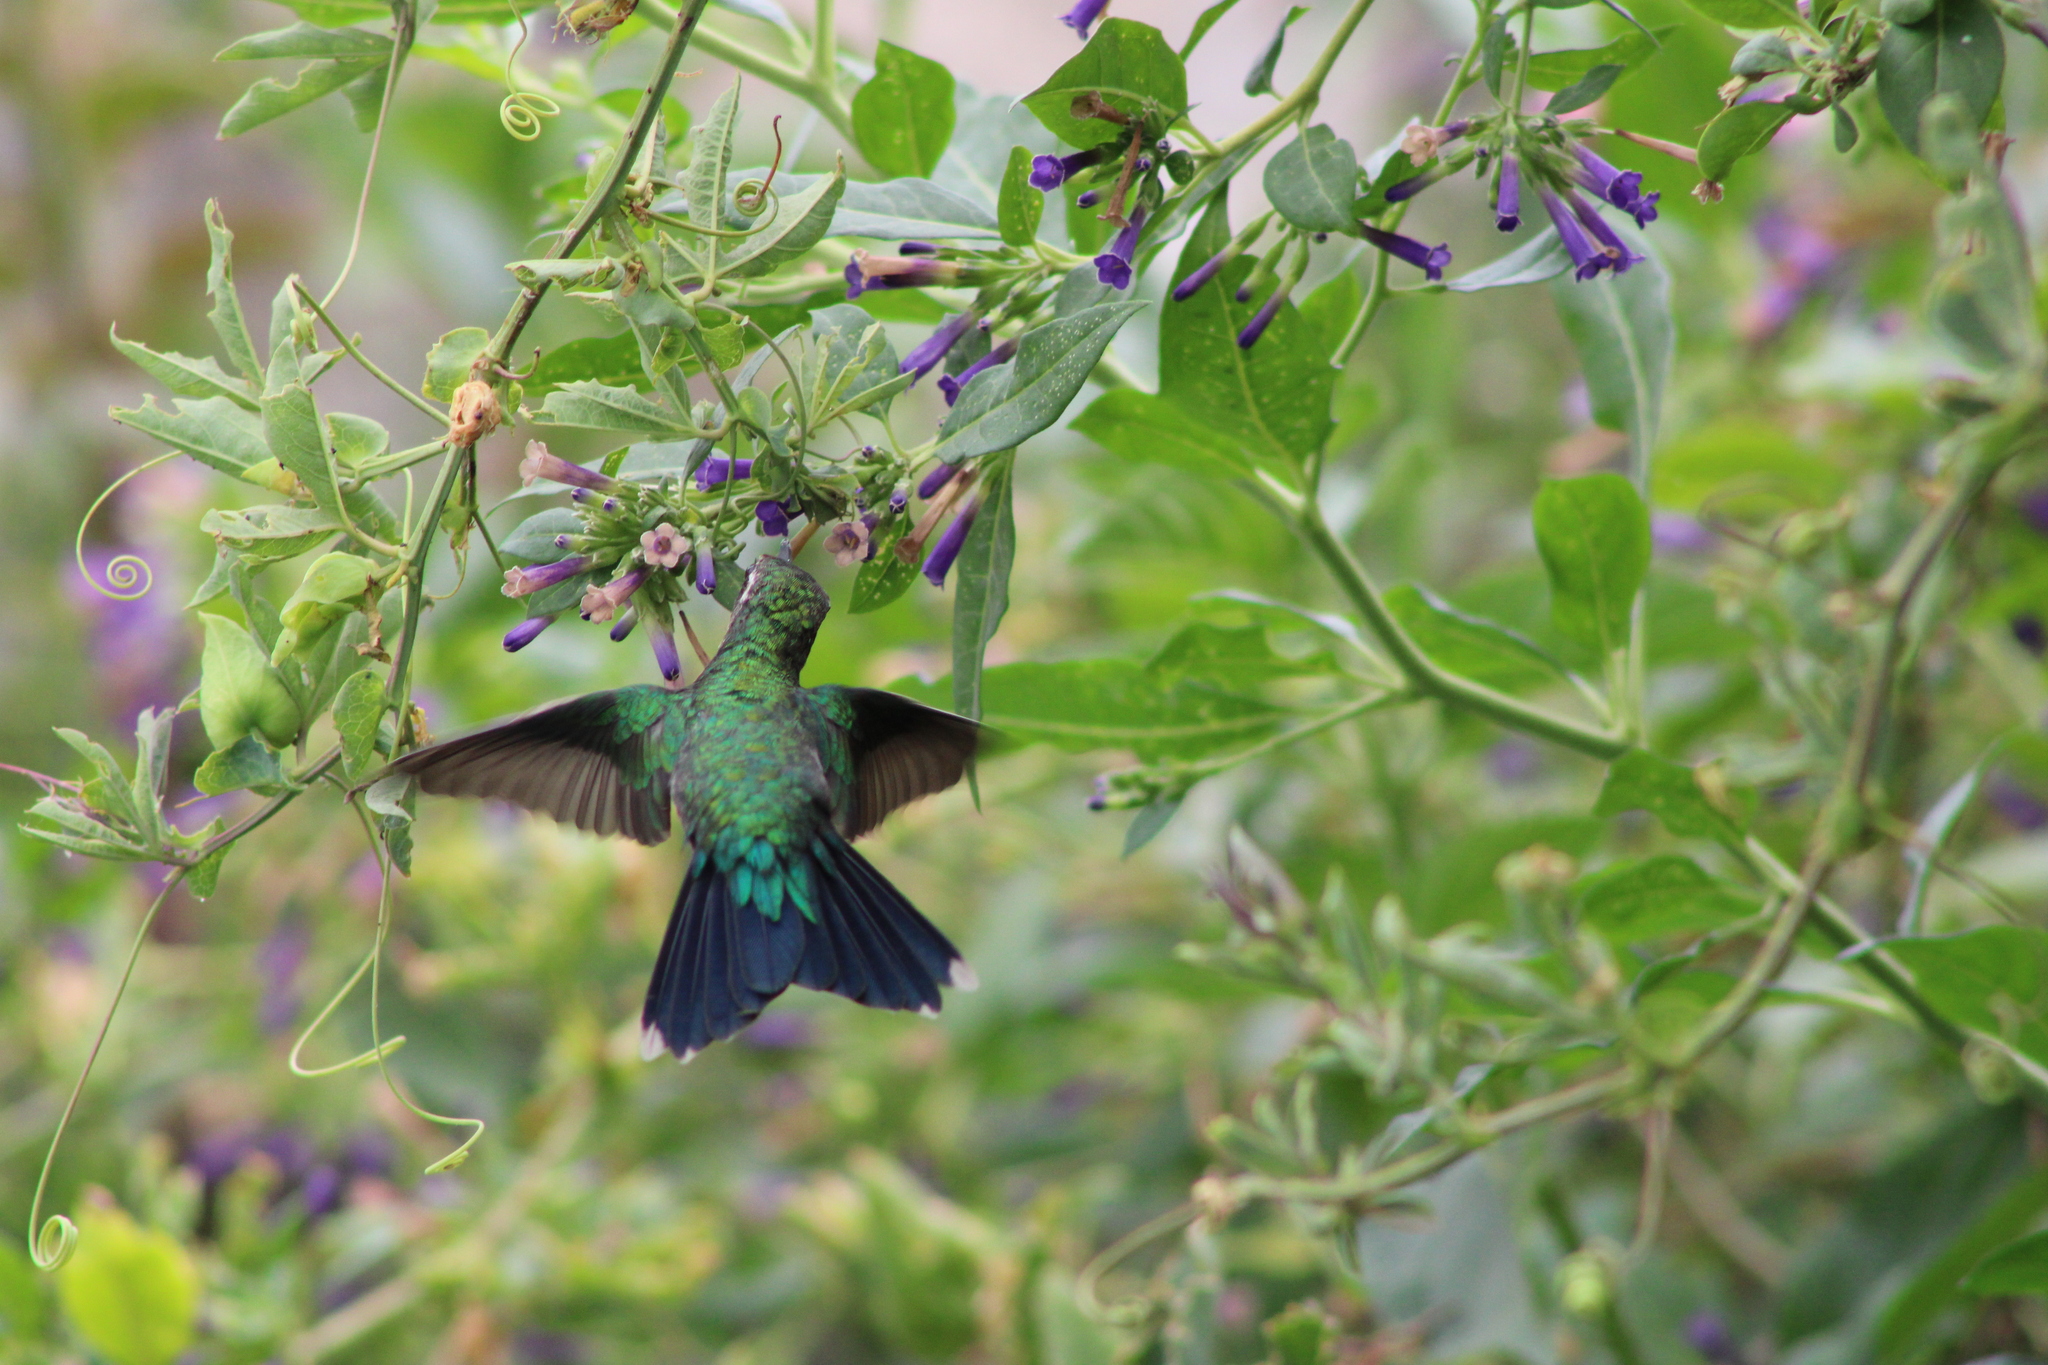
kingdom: Animalia
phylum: Chordata
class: Aves
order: Apodiformes
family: Trochilidae
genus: Chlorostilbon
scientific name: Chlorostilbon lucidus
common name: Glittering-bellied emerald
